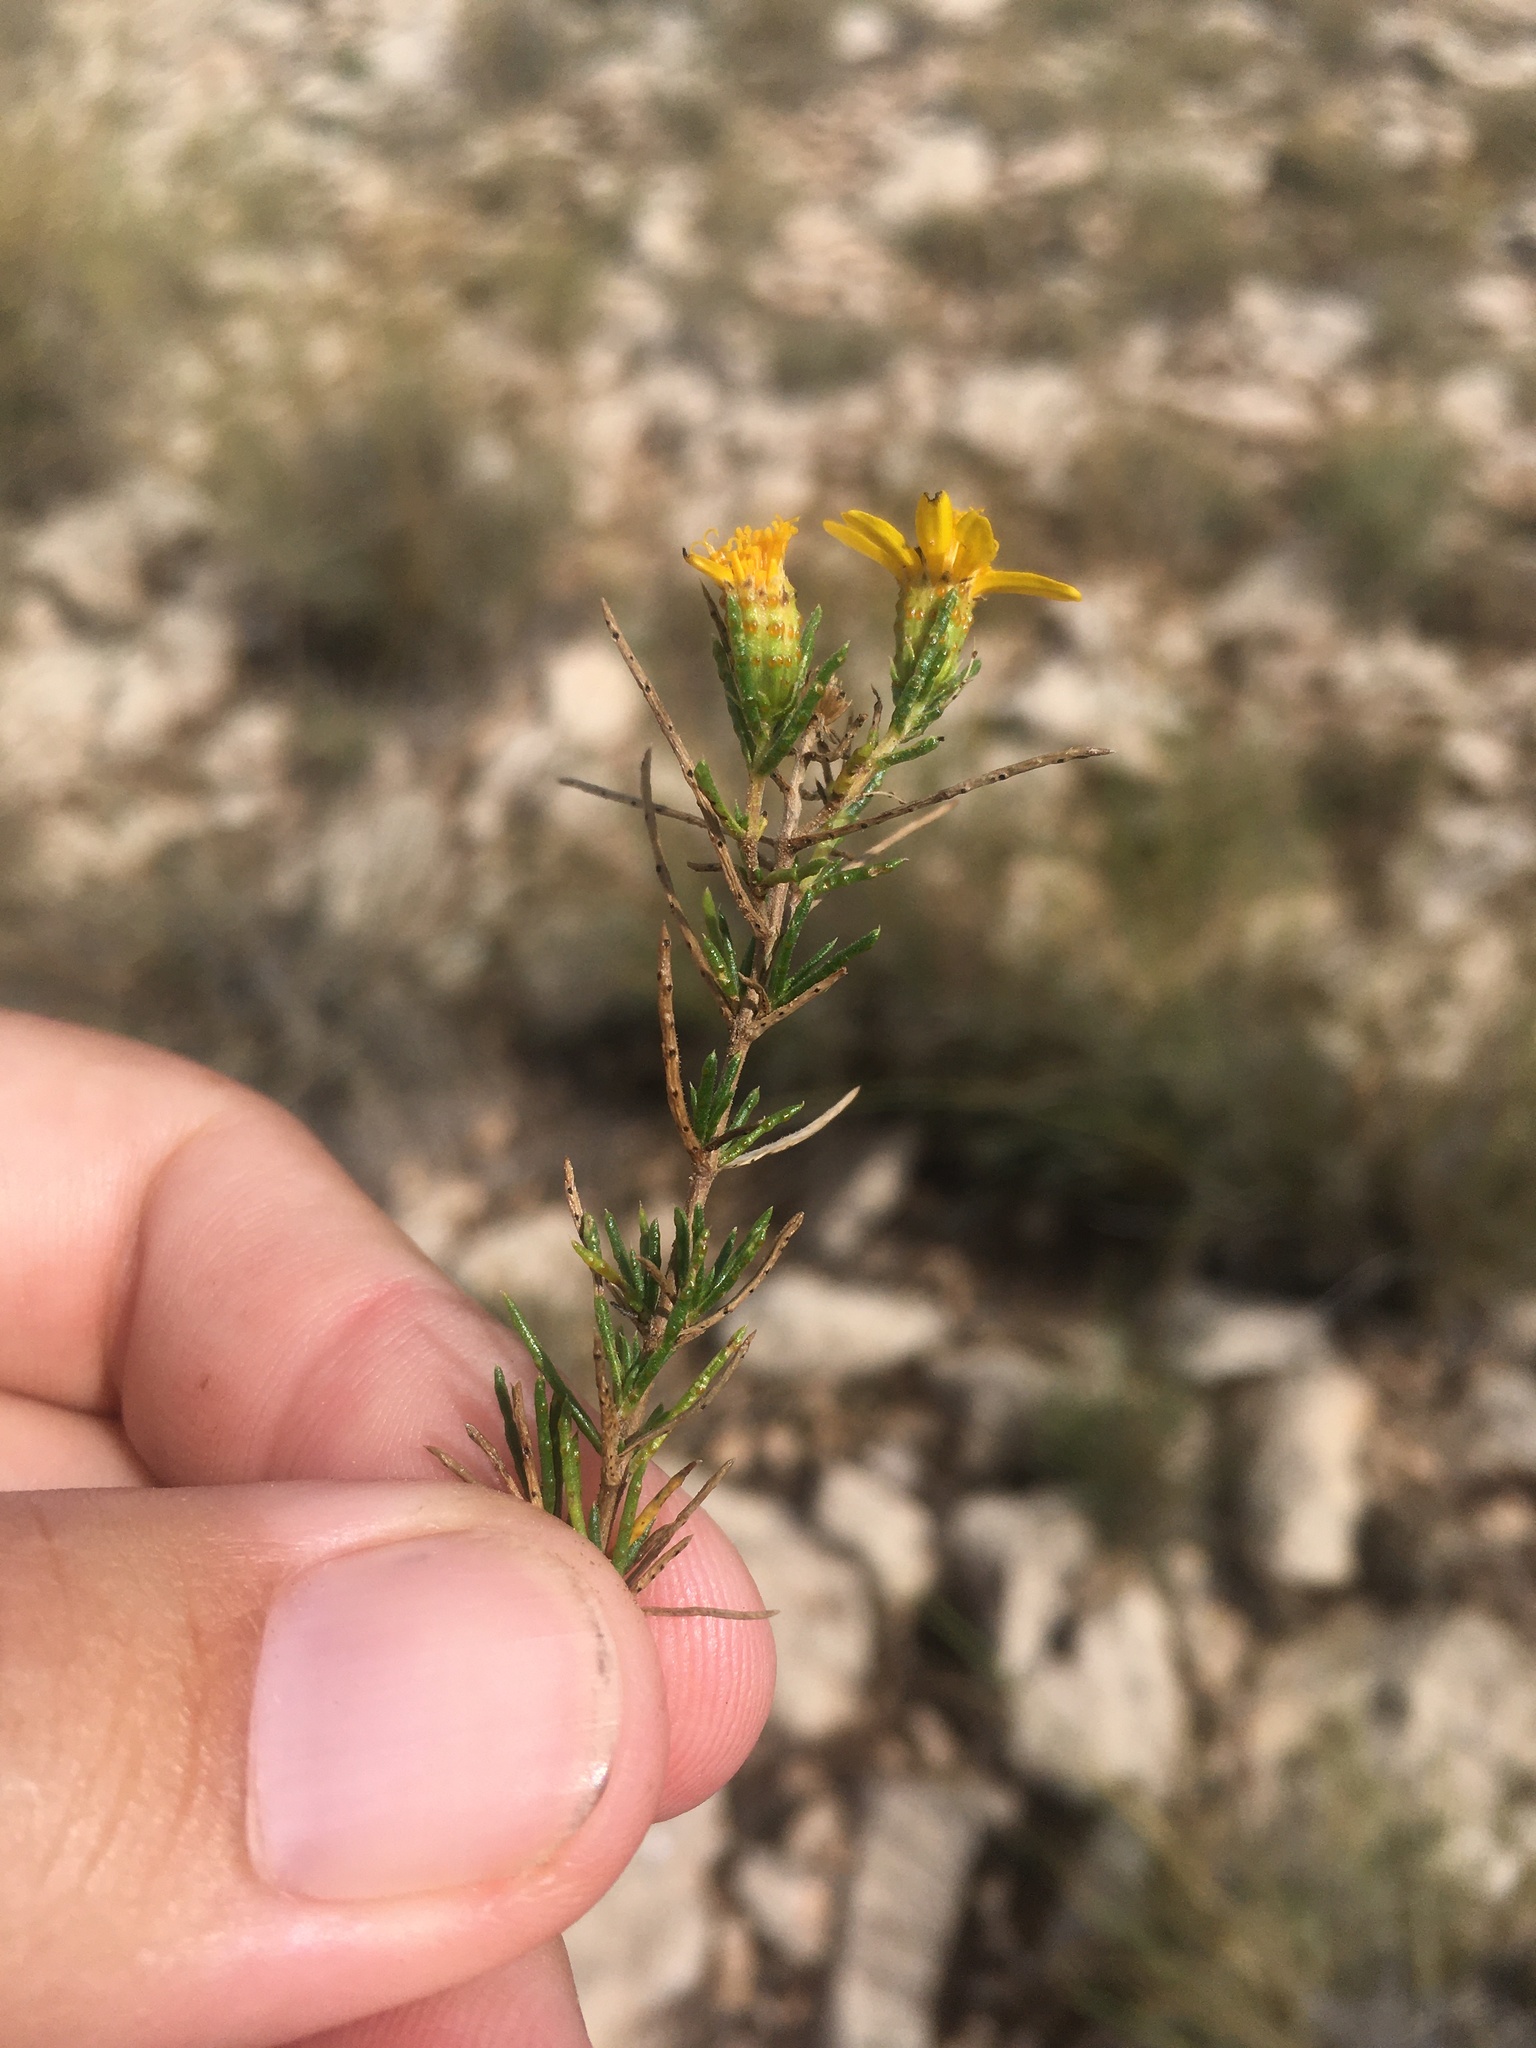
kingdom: Plantae
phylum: Tracheophyta
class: Magnoliopsida
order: Asterales
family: Asteraceae
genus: Thymophylla
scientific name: Thymophylla acerosa
